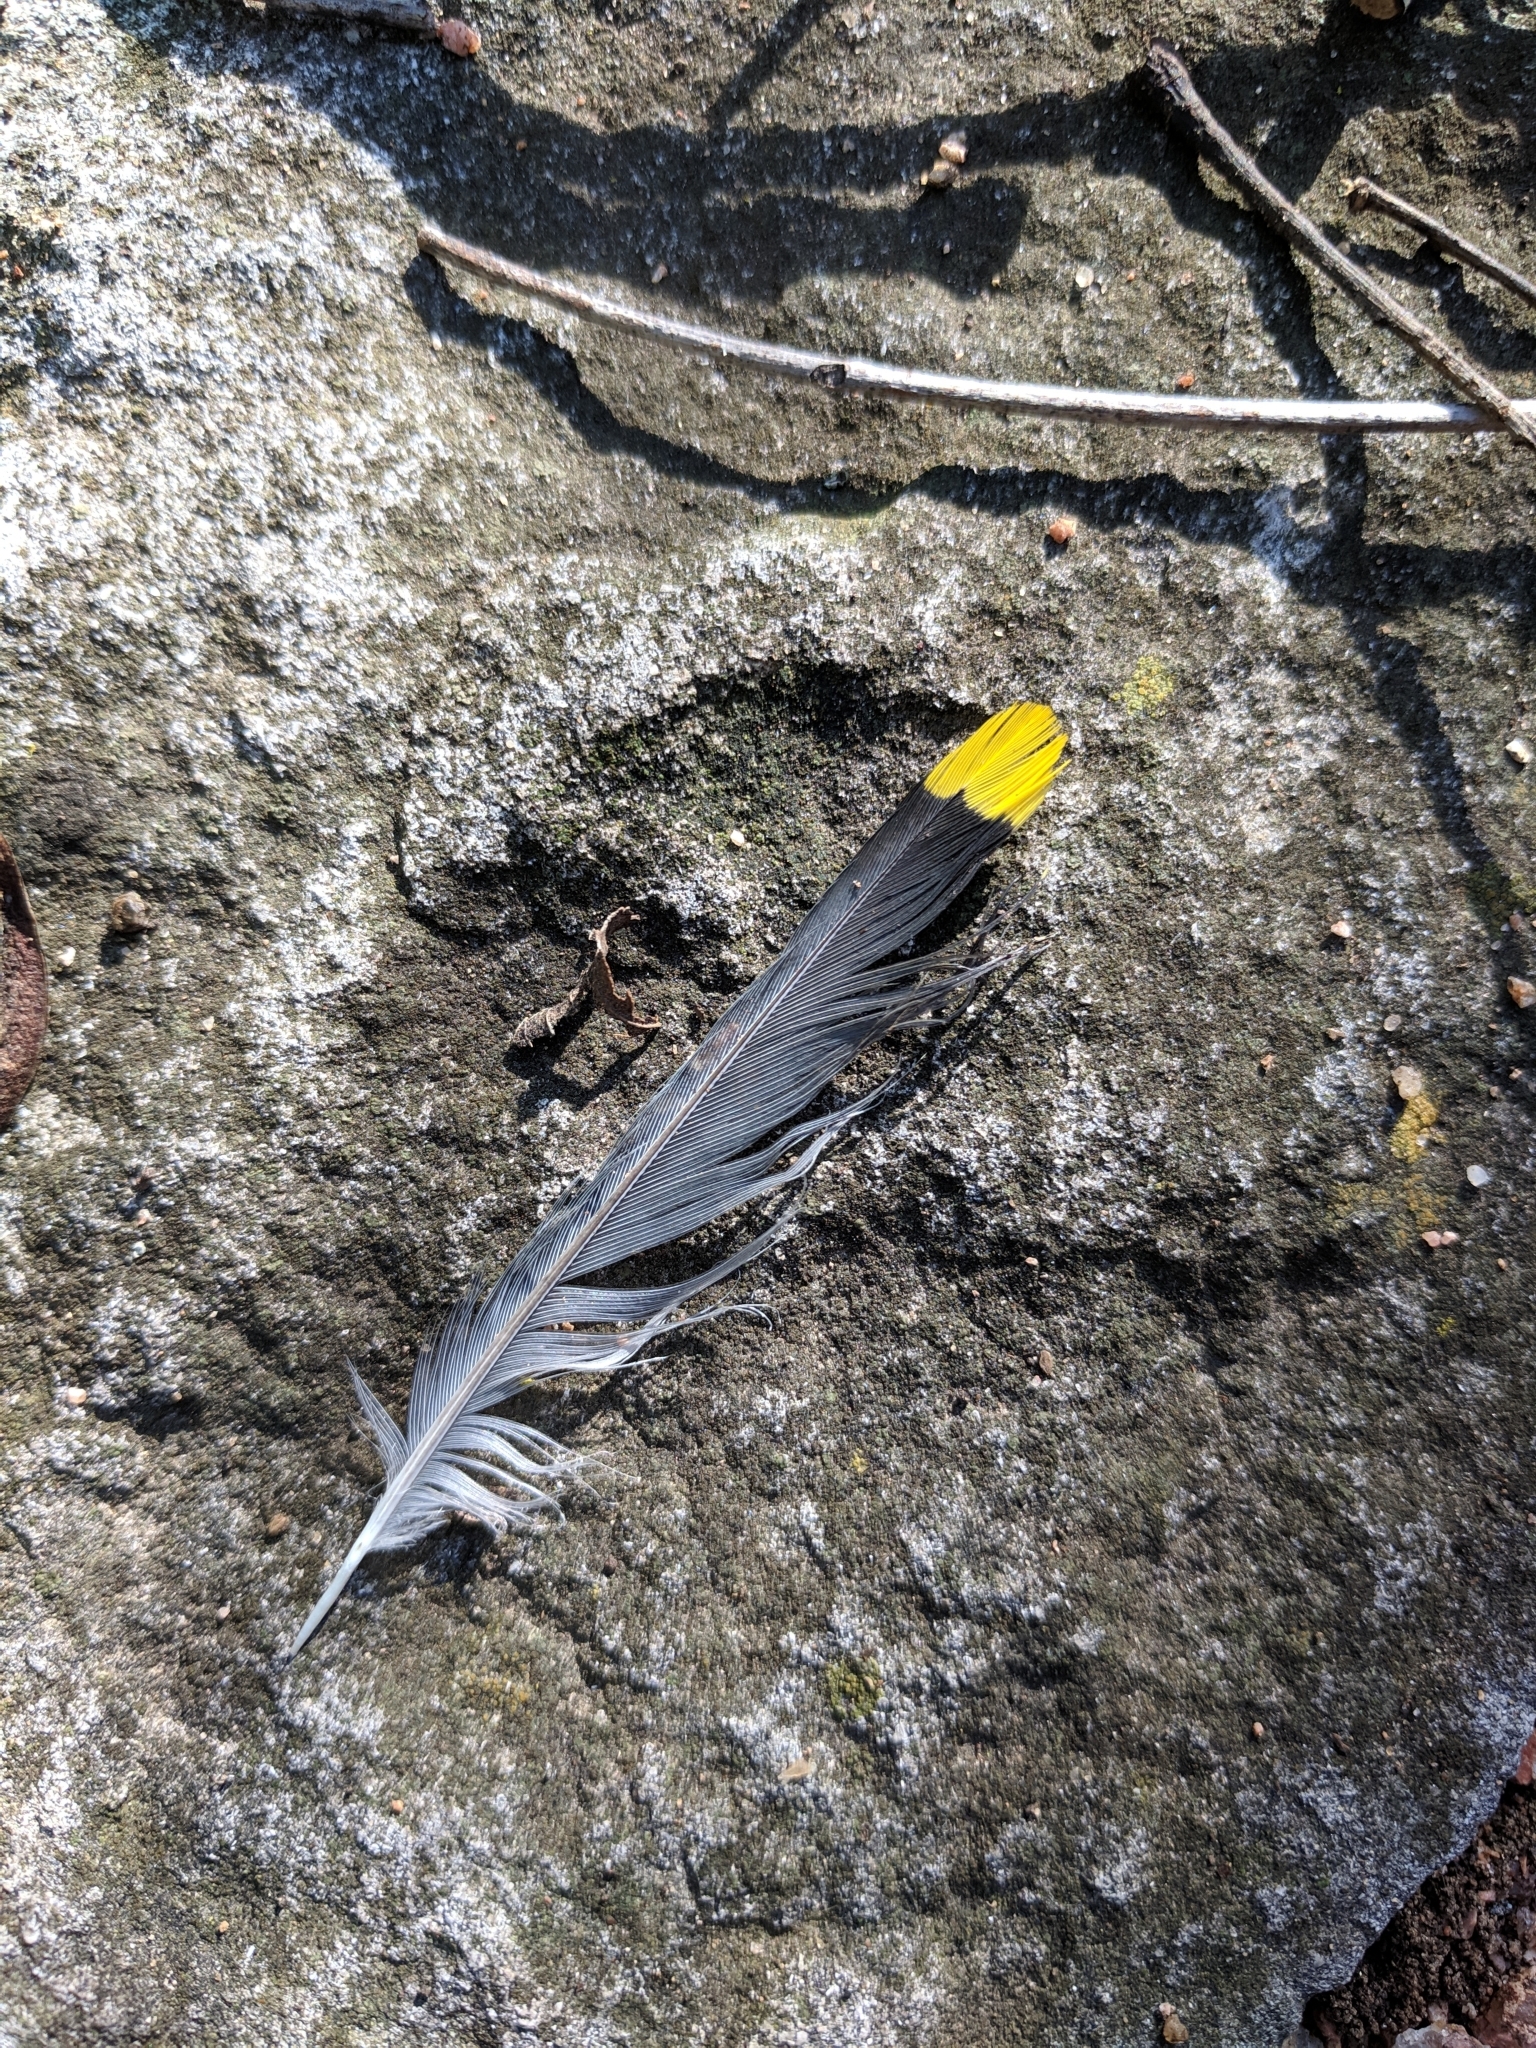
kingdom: Animalia
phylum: Chordata
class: Aves
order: Passeriformes
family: Bombycillidae
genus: Bombycilla
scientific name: Bombycilla cedrorum
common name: Cedar waxwing
